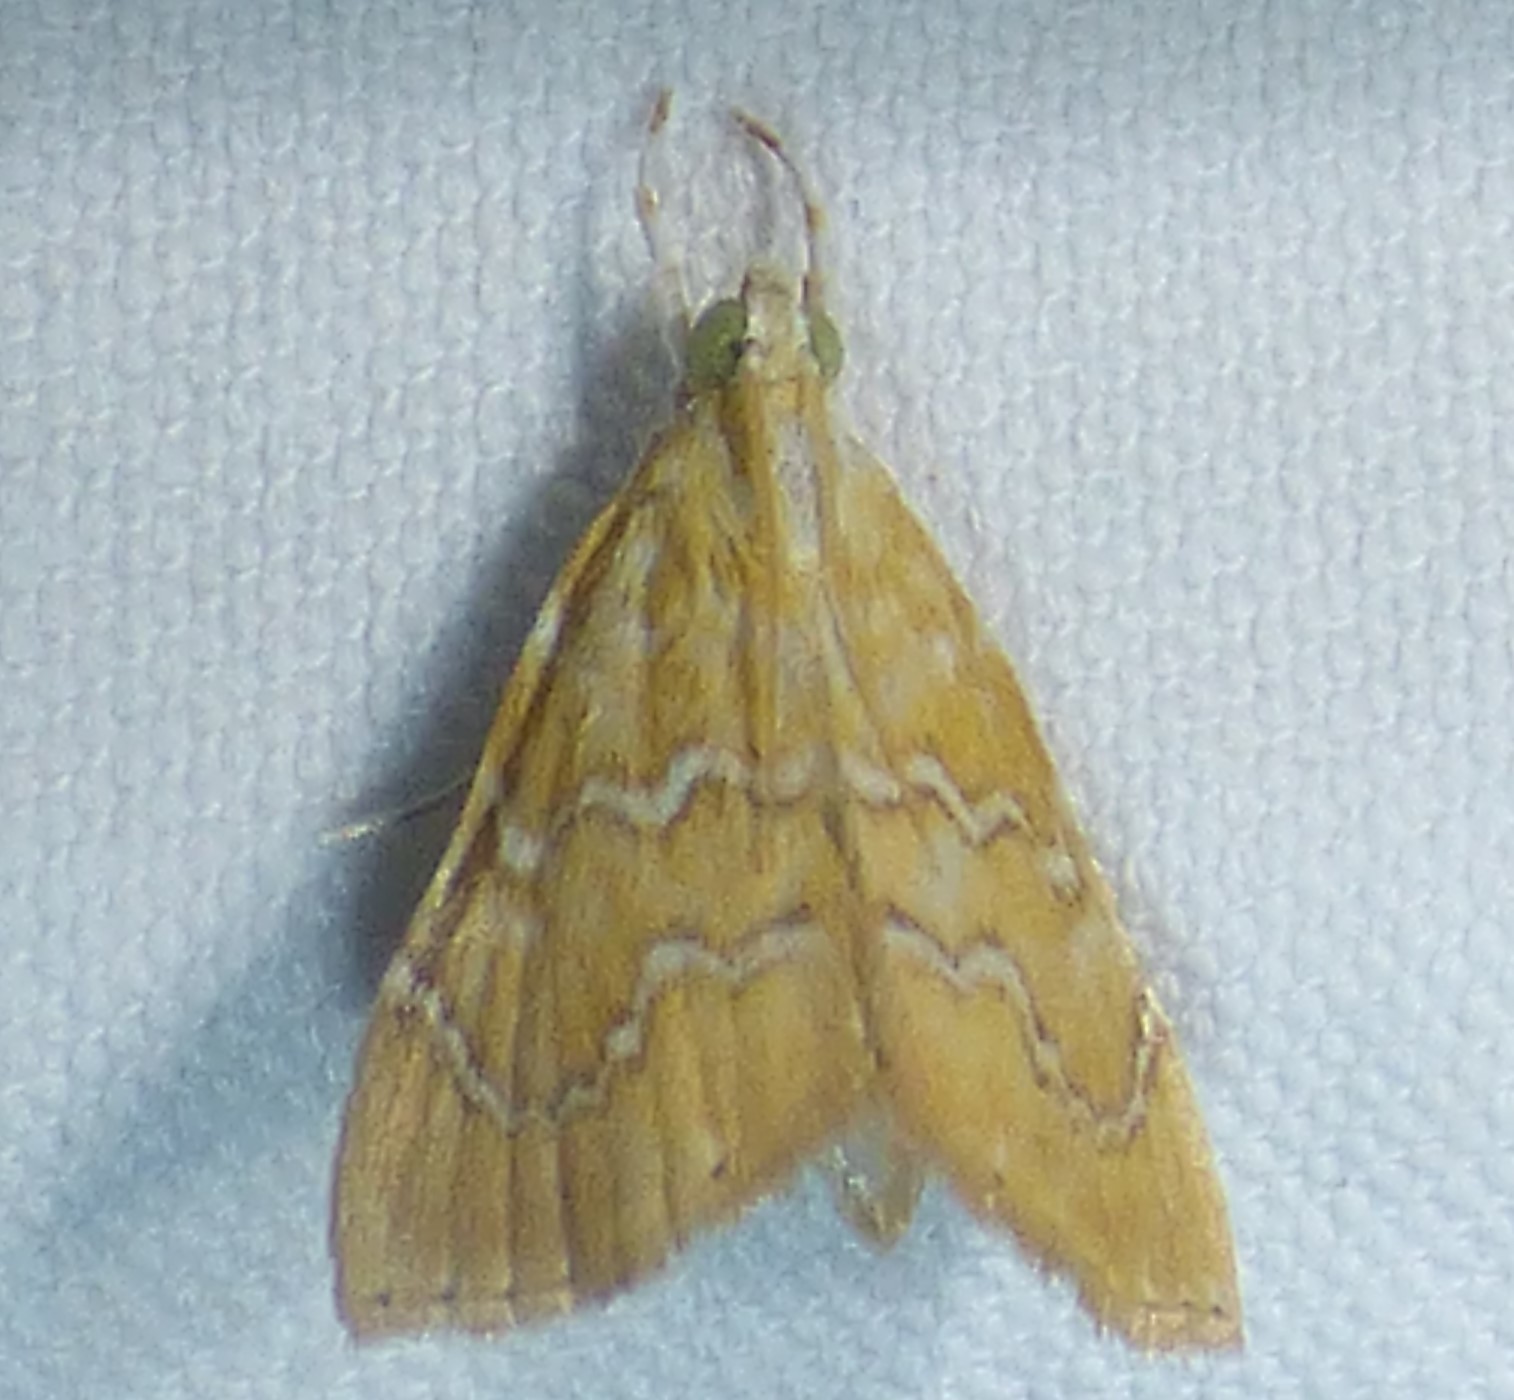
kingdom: Animalia
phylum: Arthropoda
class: Insecta
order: Lepidoptera
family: Crambidae
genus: Glaphyria
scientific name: Glaphyria sesquistrialis
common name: White-roped glaphyria
